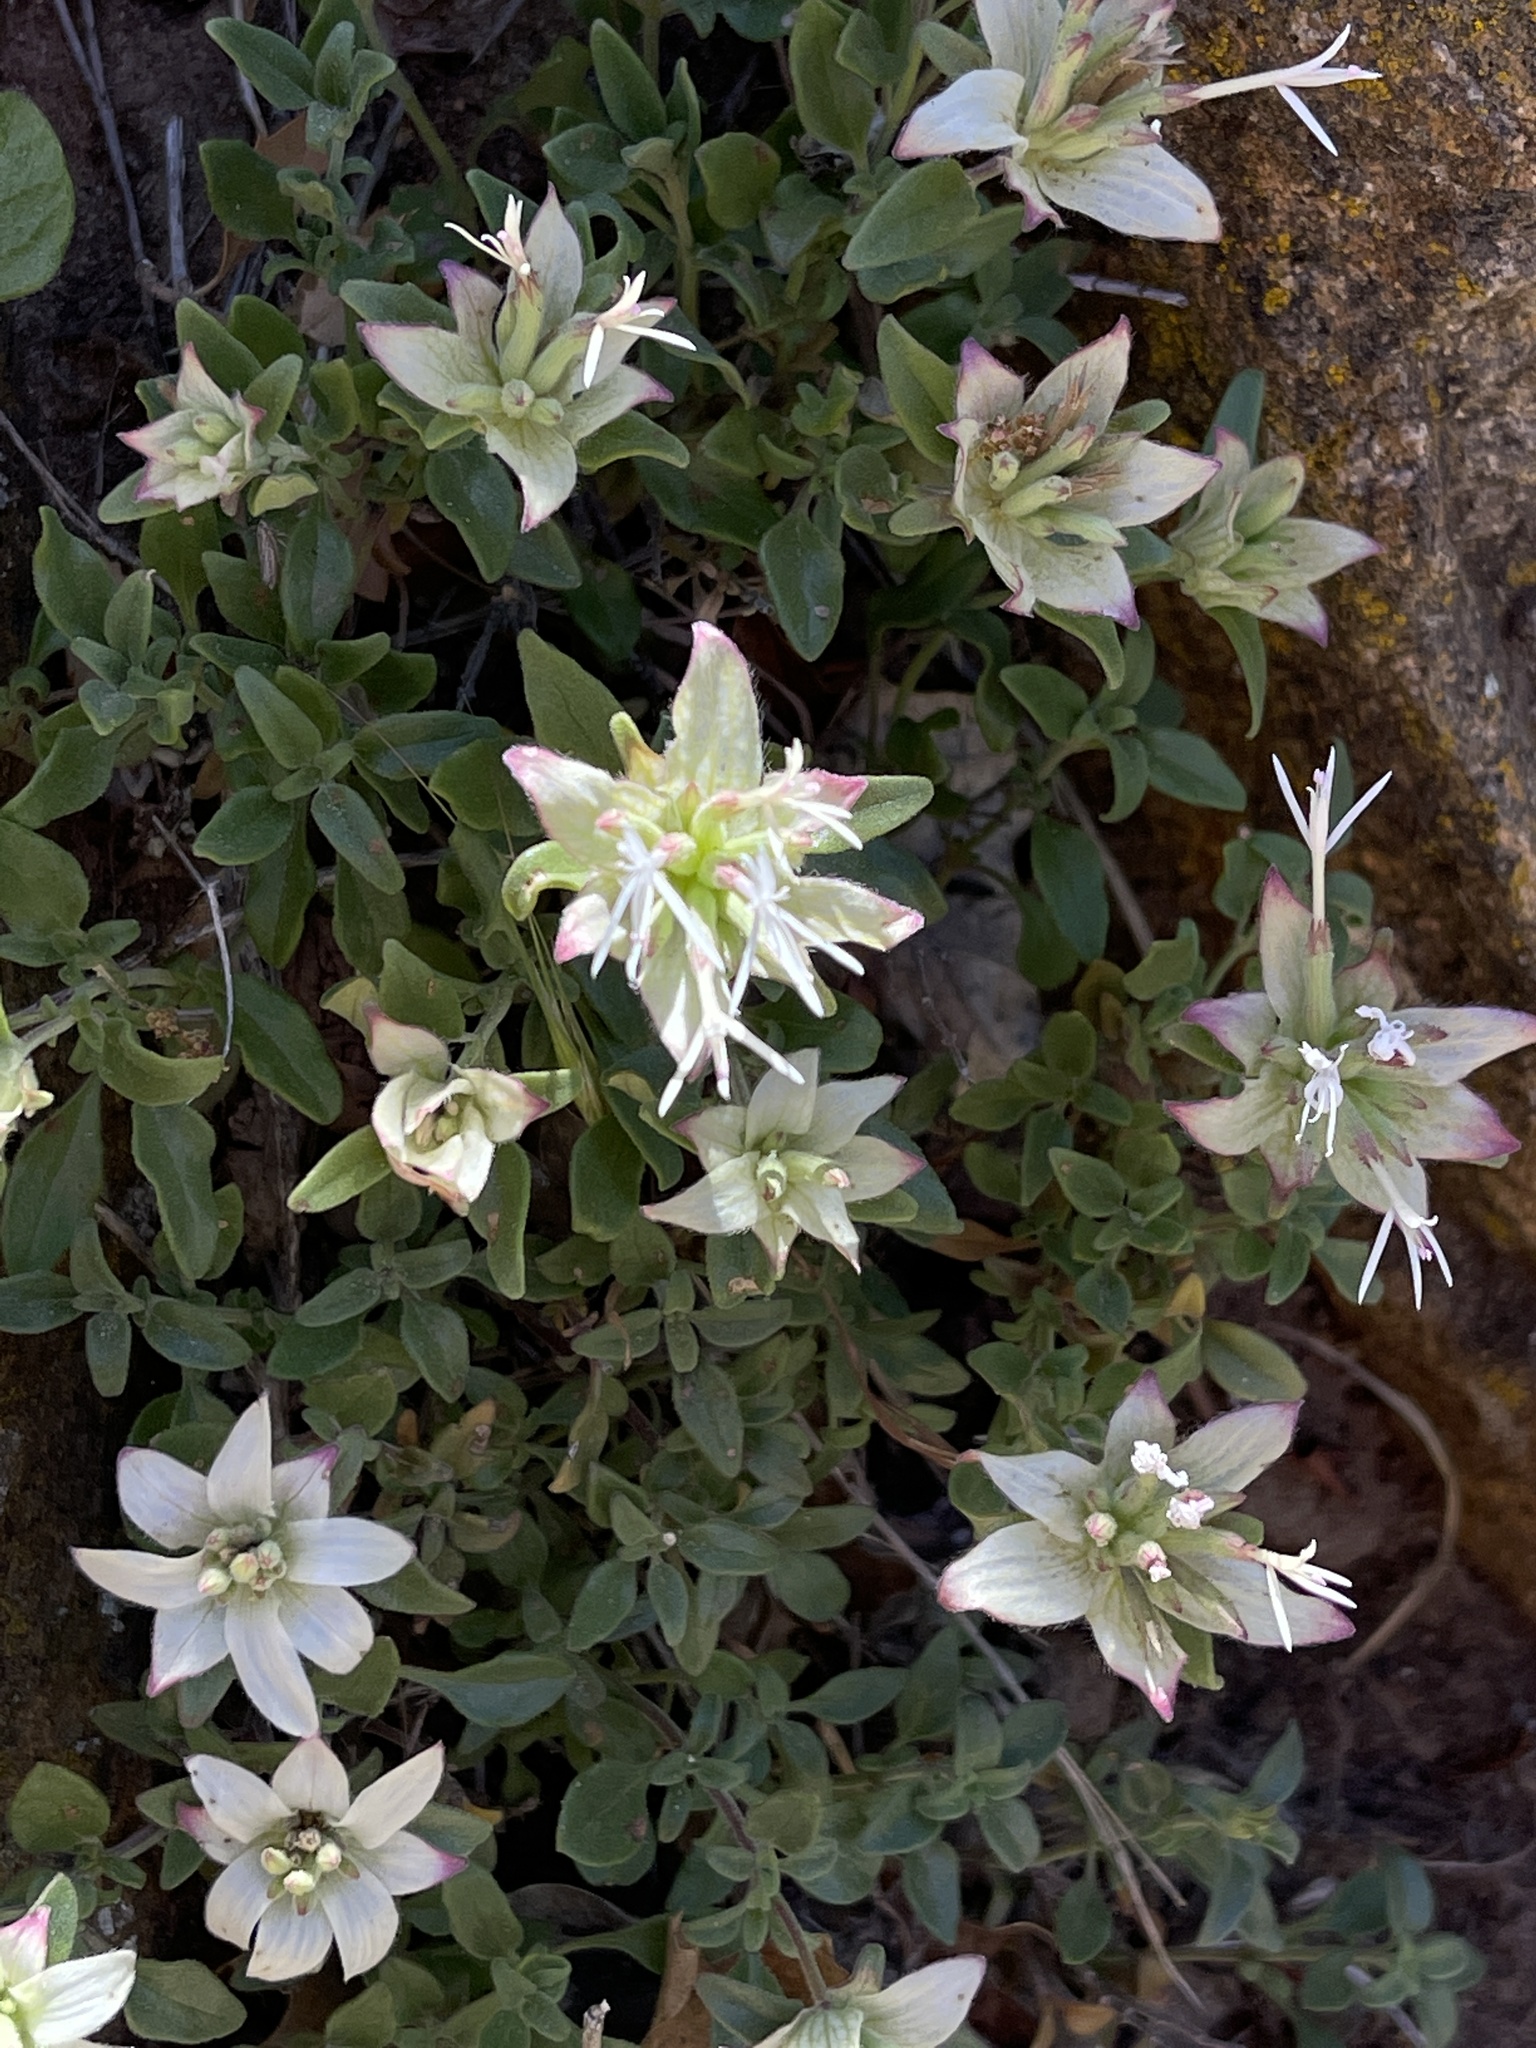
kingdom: Plantae
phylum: Tracheophyta
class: Magnoliopsida
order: Lamiales
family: Lamiaceae
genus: Monardella
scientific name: Monardella nana
